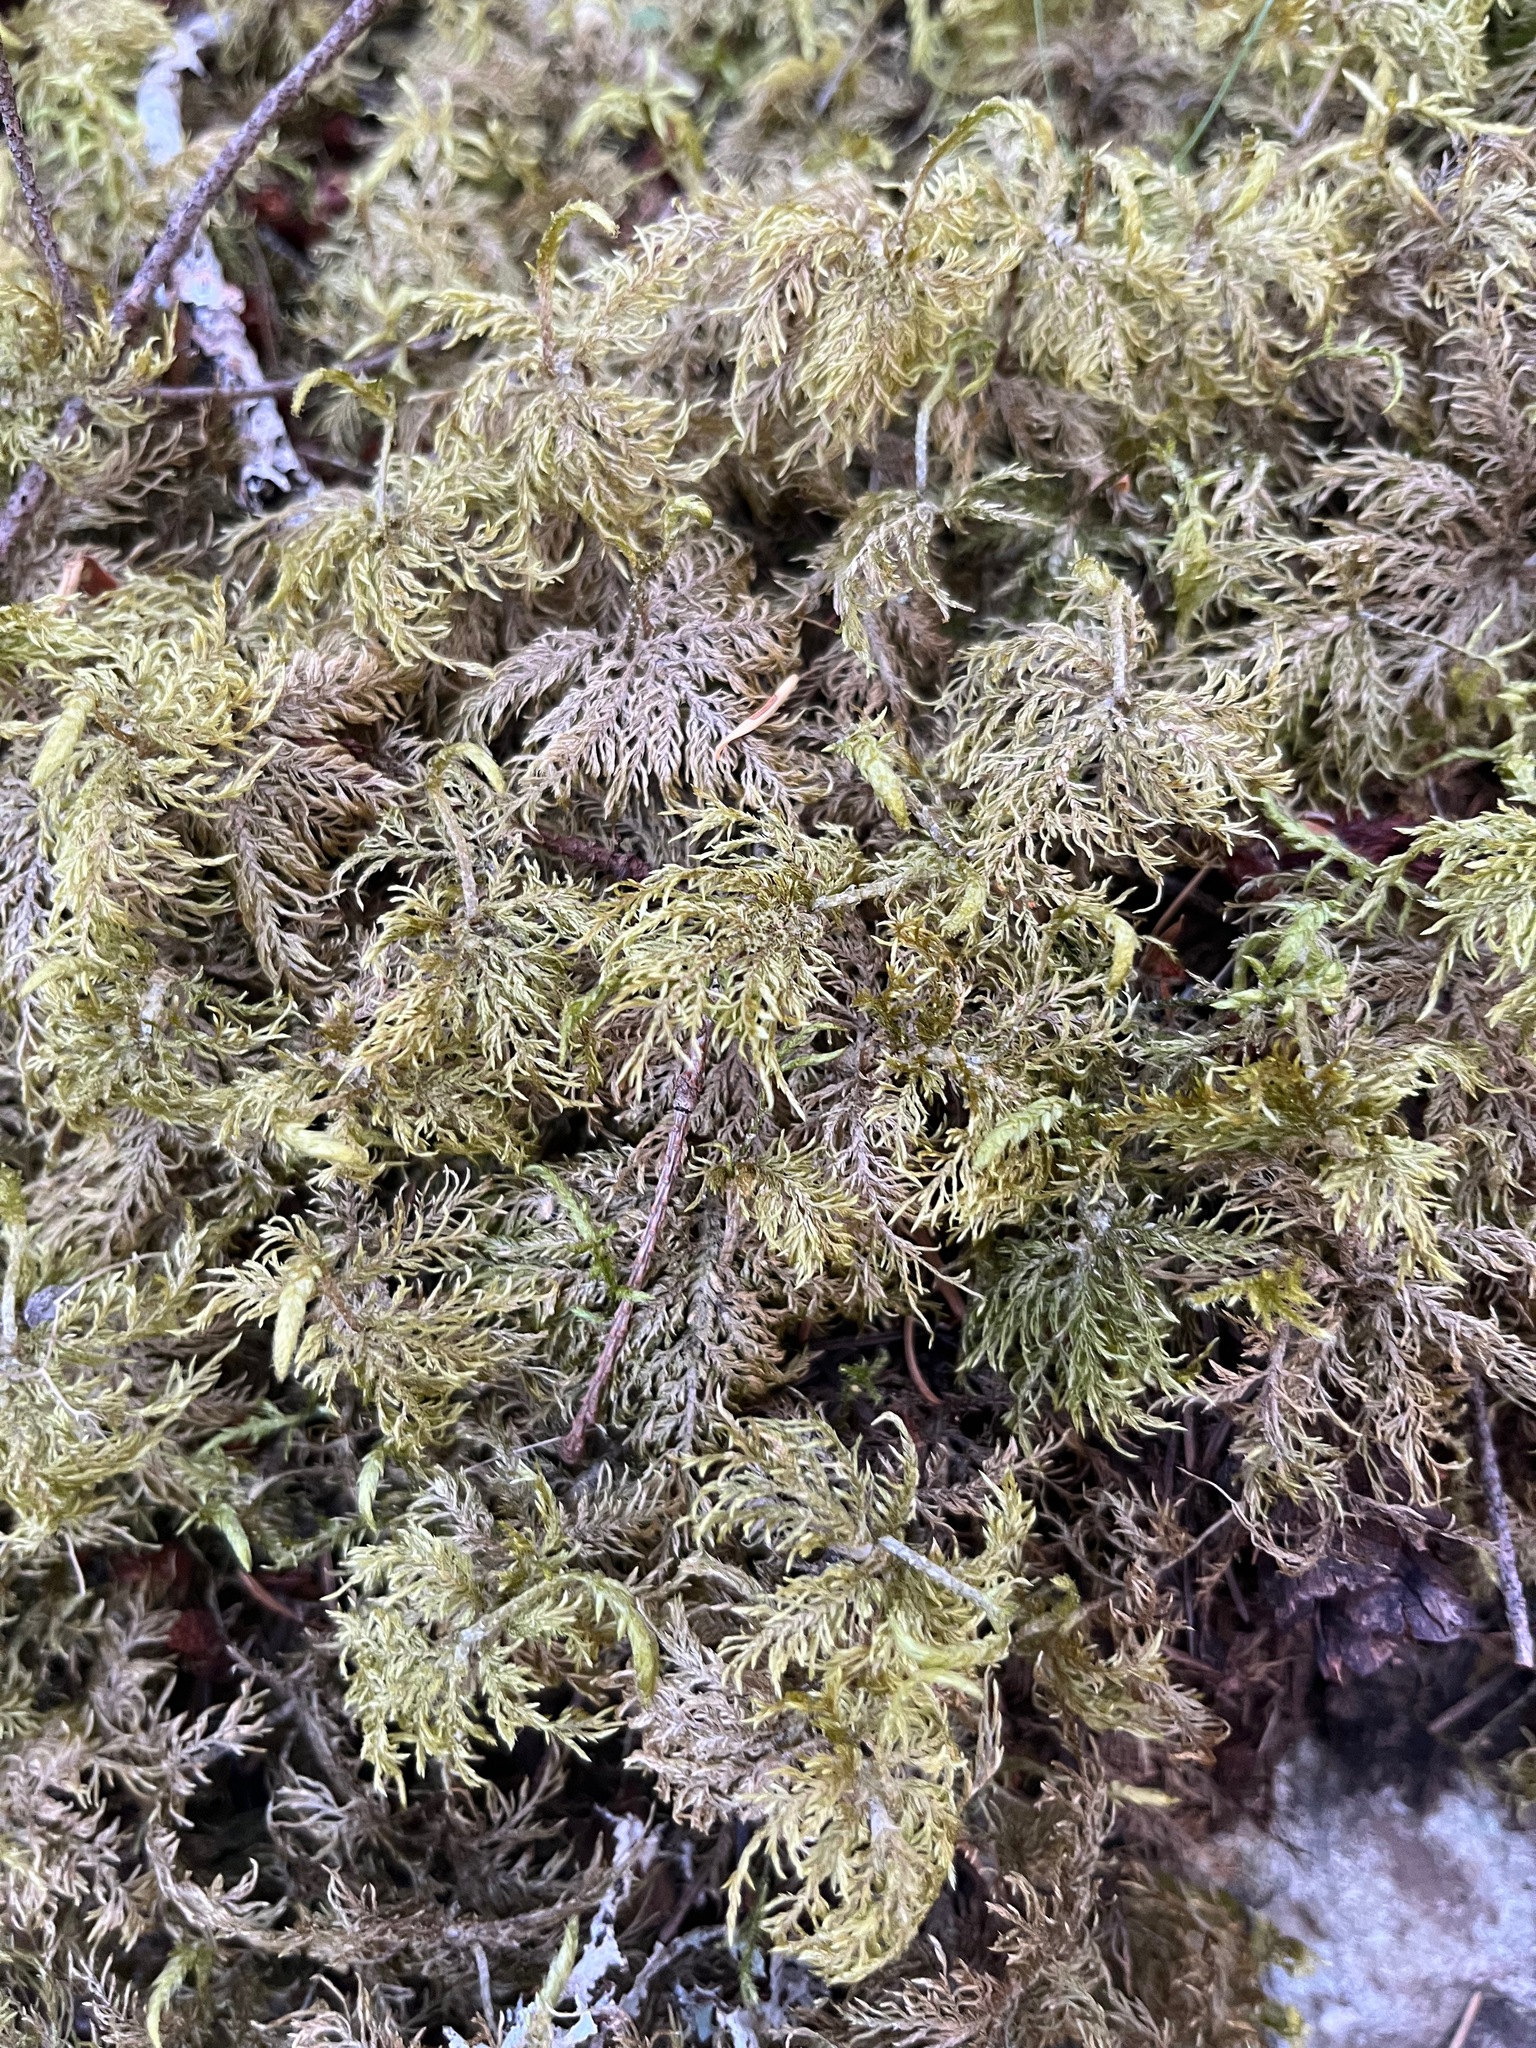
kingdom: Plantae
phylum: Bryophyta
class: Bryopsida
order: Hypnales
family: Hylocomiaceae
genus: Hylocomium
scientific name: Hylocomium splendens
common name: Stairstep moss
